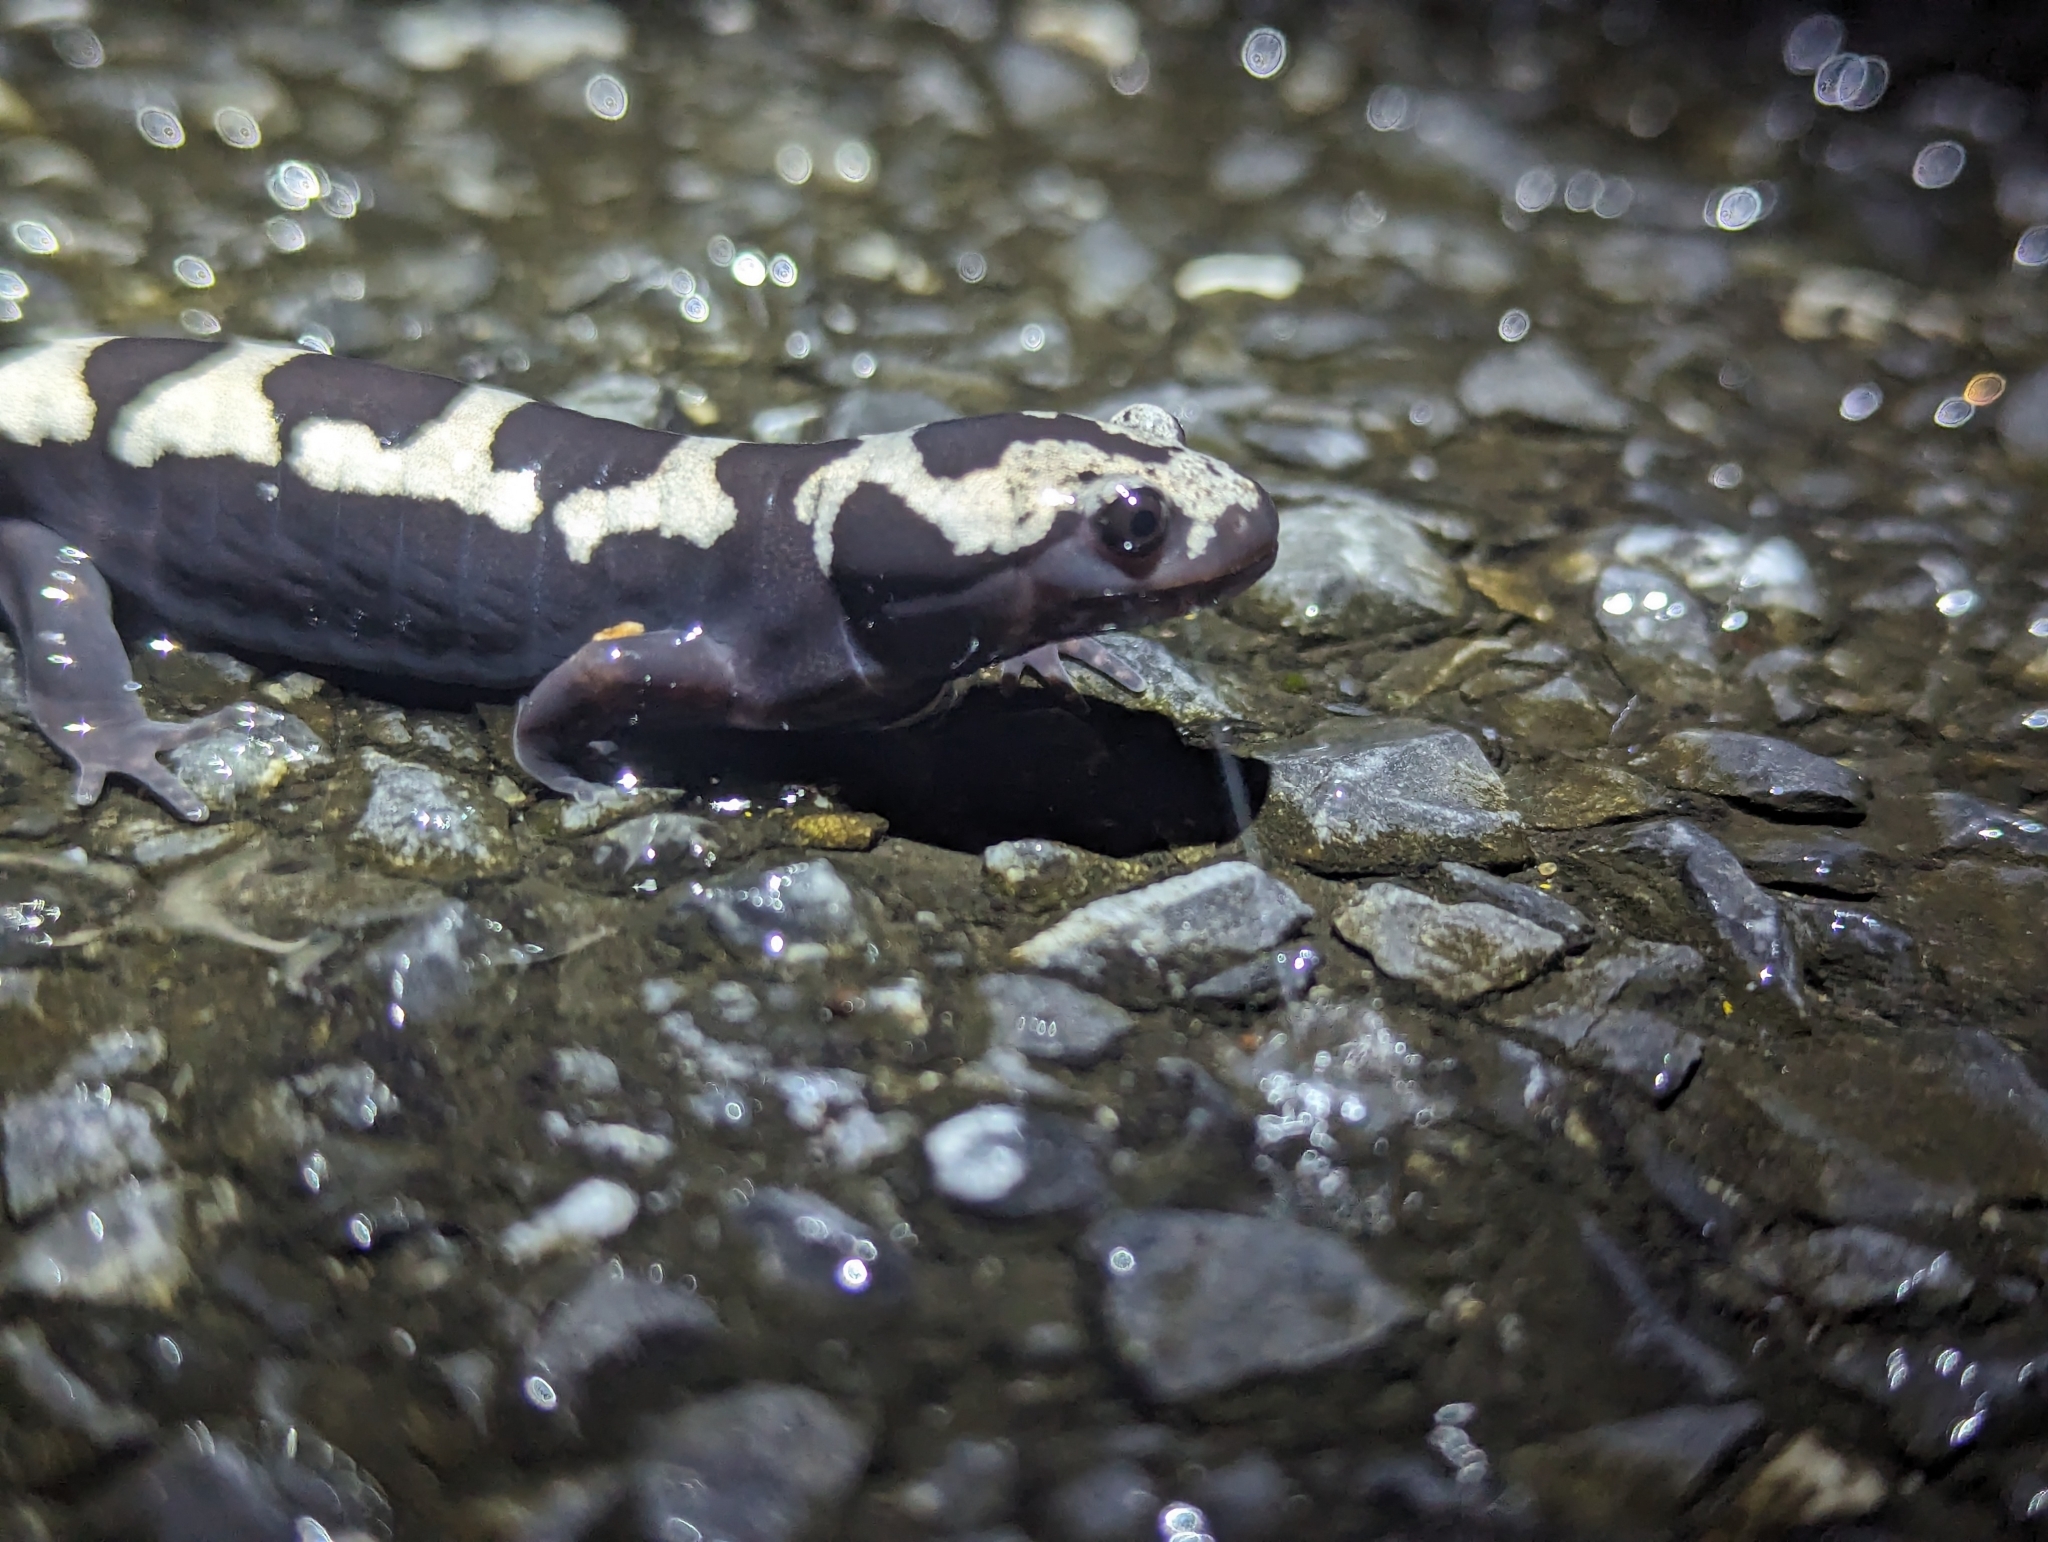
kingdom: Animalia
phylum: Chordata
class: Amphibia
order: Caudata
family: Ambystomatidae
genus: Ambystoma
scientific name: Ambystoma opacum
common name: Marbled salamander
